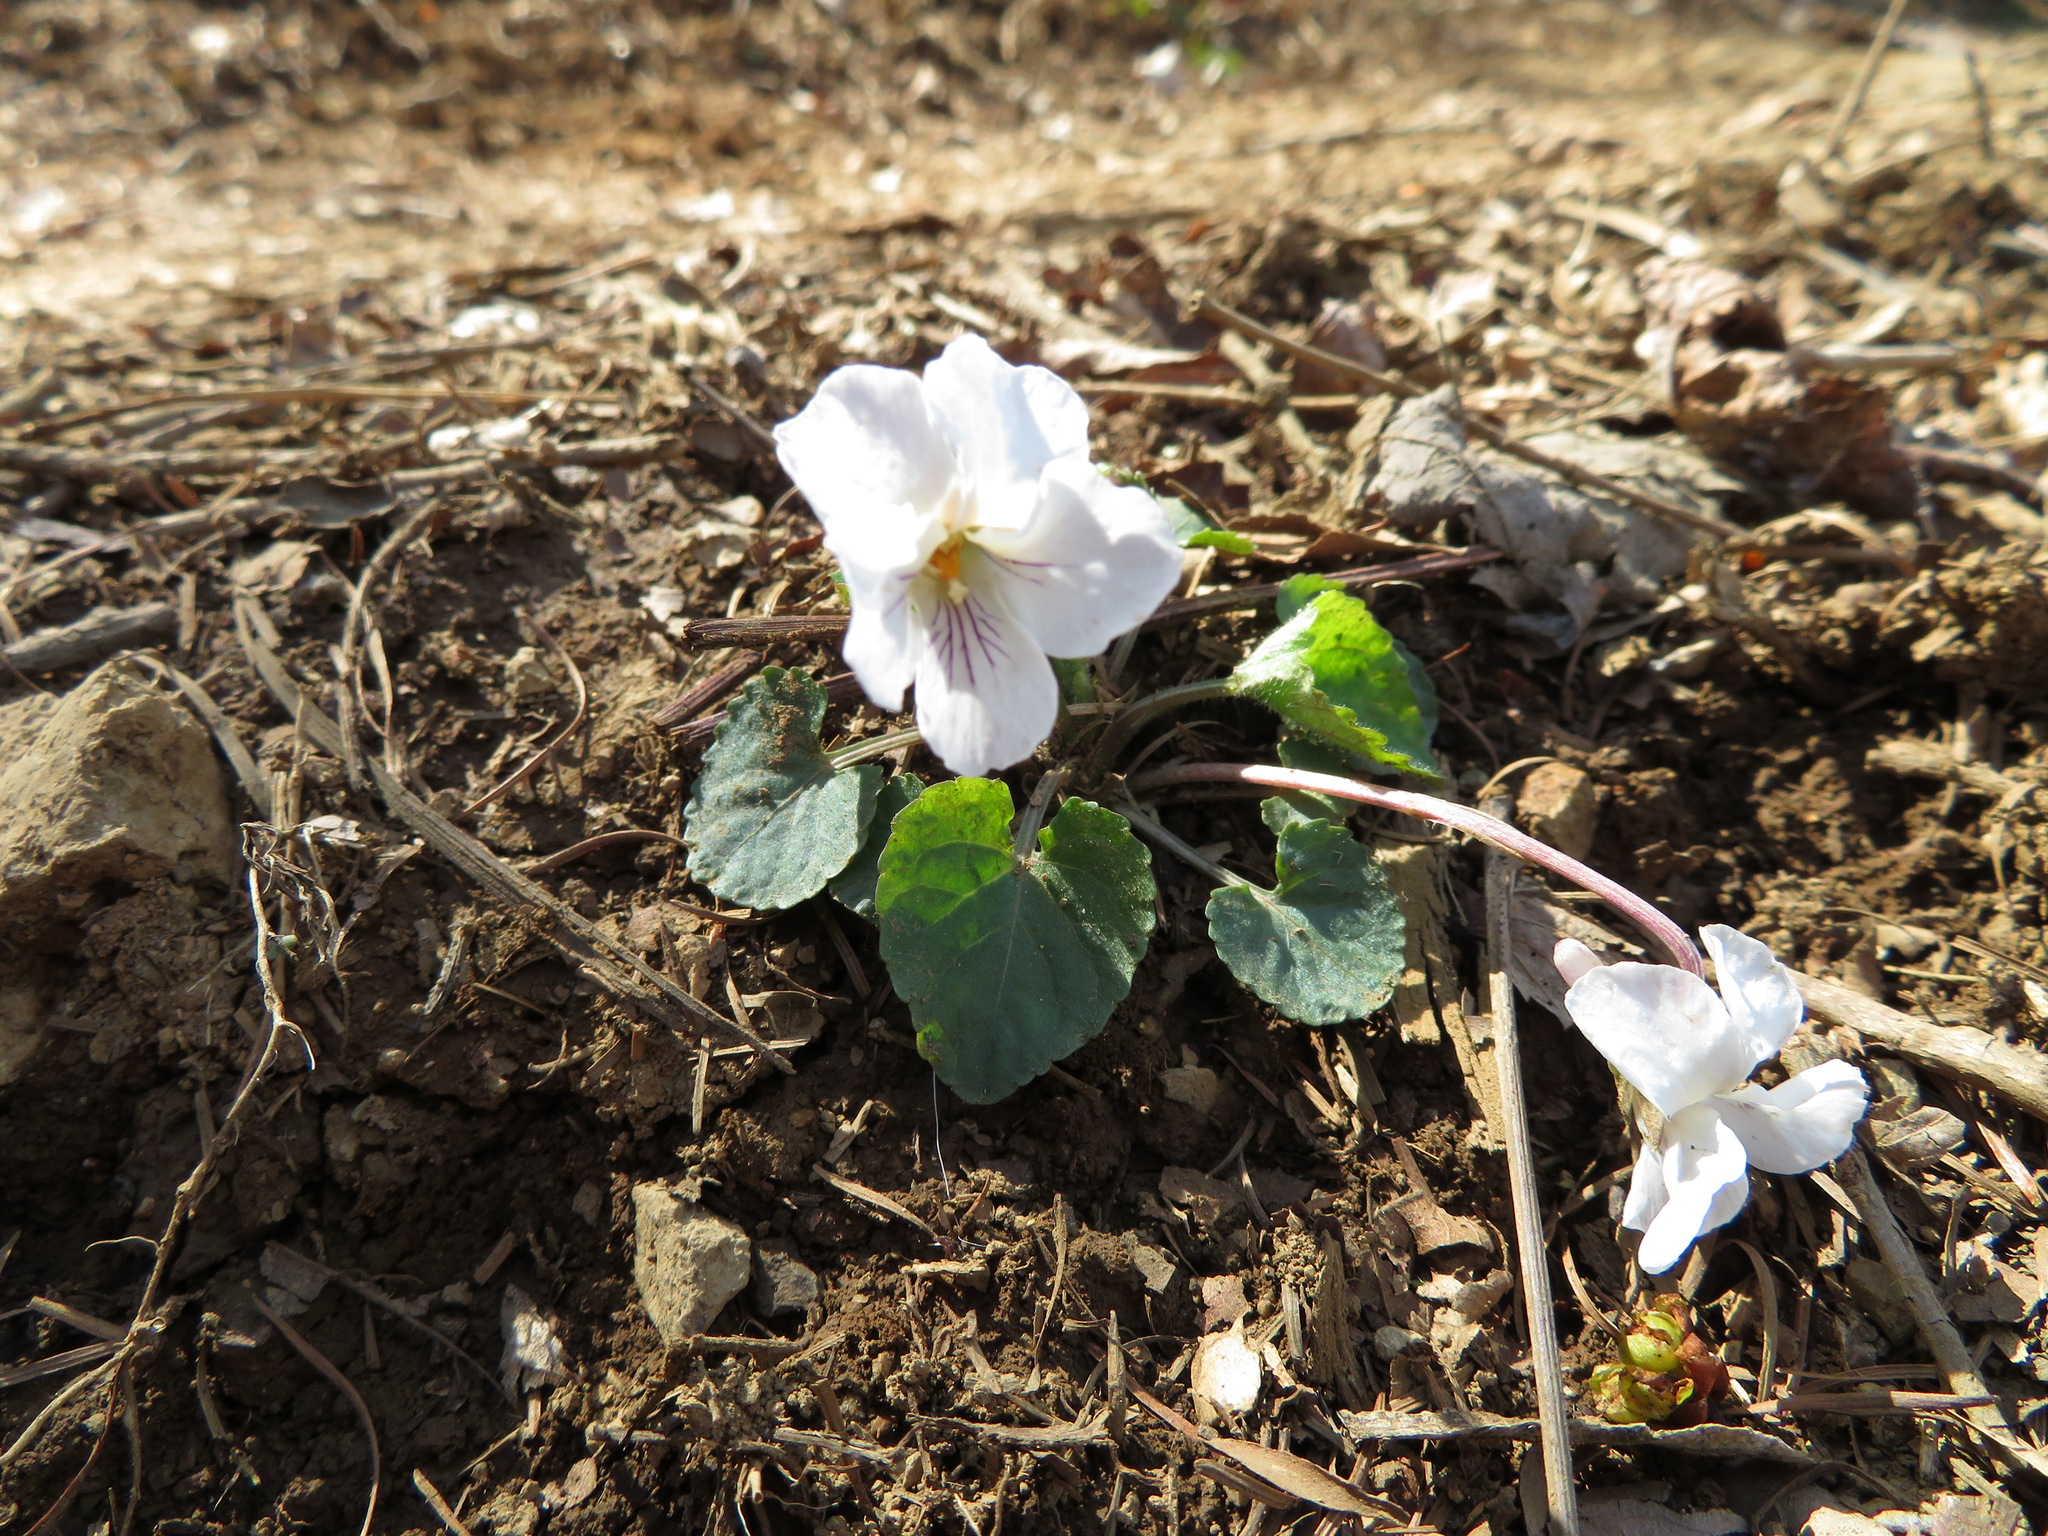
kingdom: Plantae
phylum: Tracheophyta
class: Magnoliopsida
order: Malpighiales
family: Violaceae
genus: Viola
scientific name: Viola keiskei
